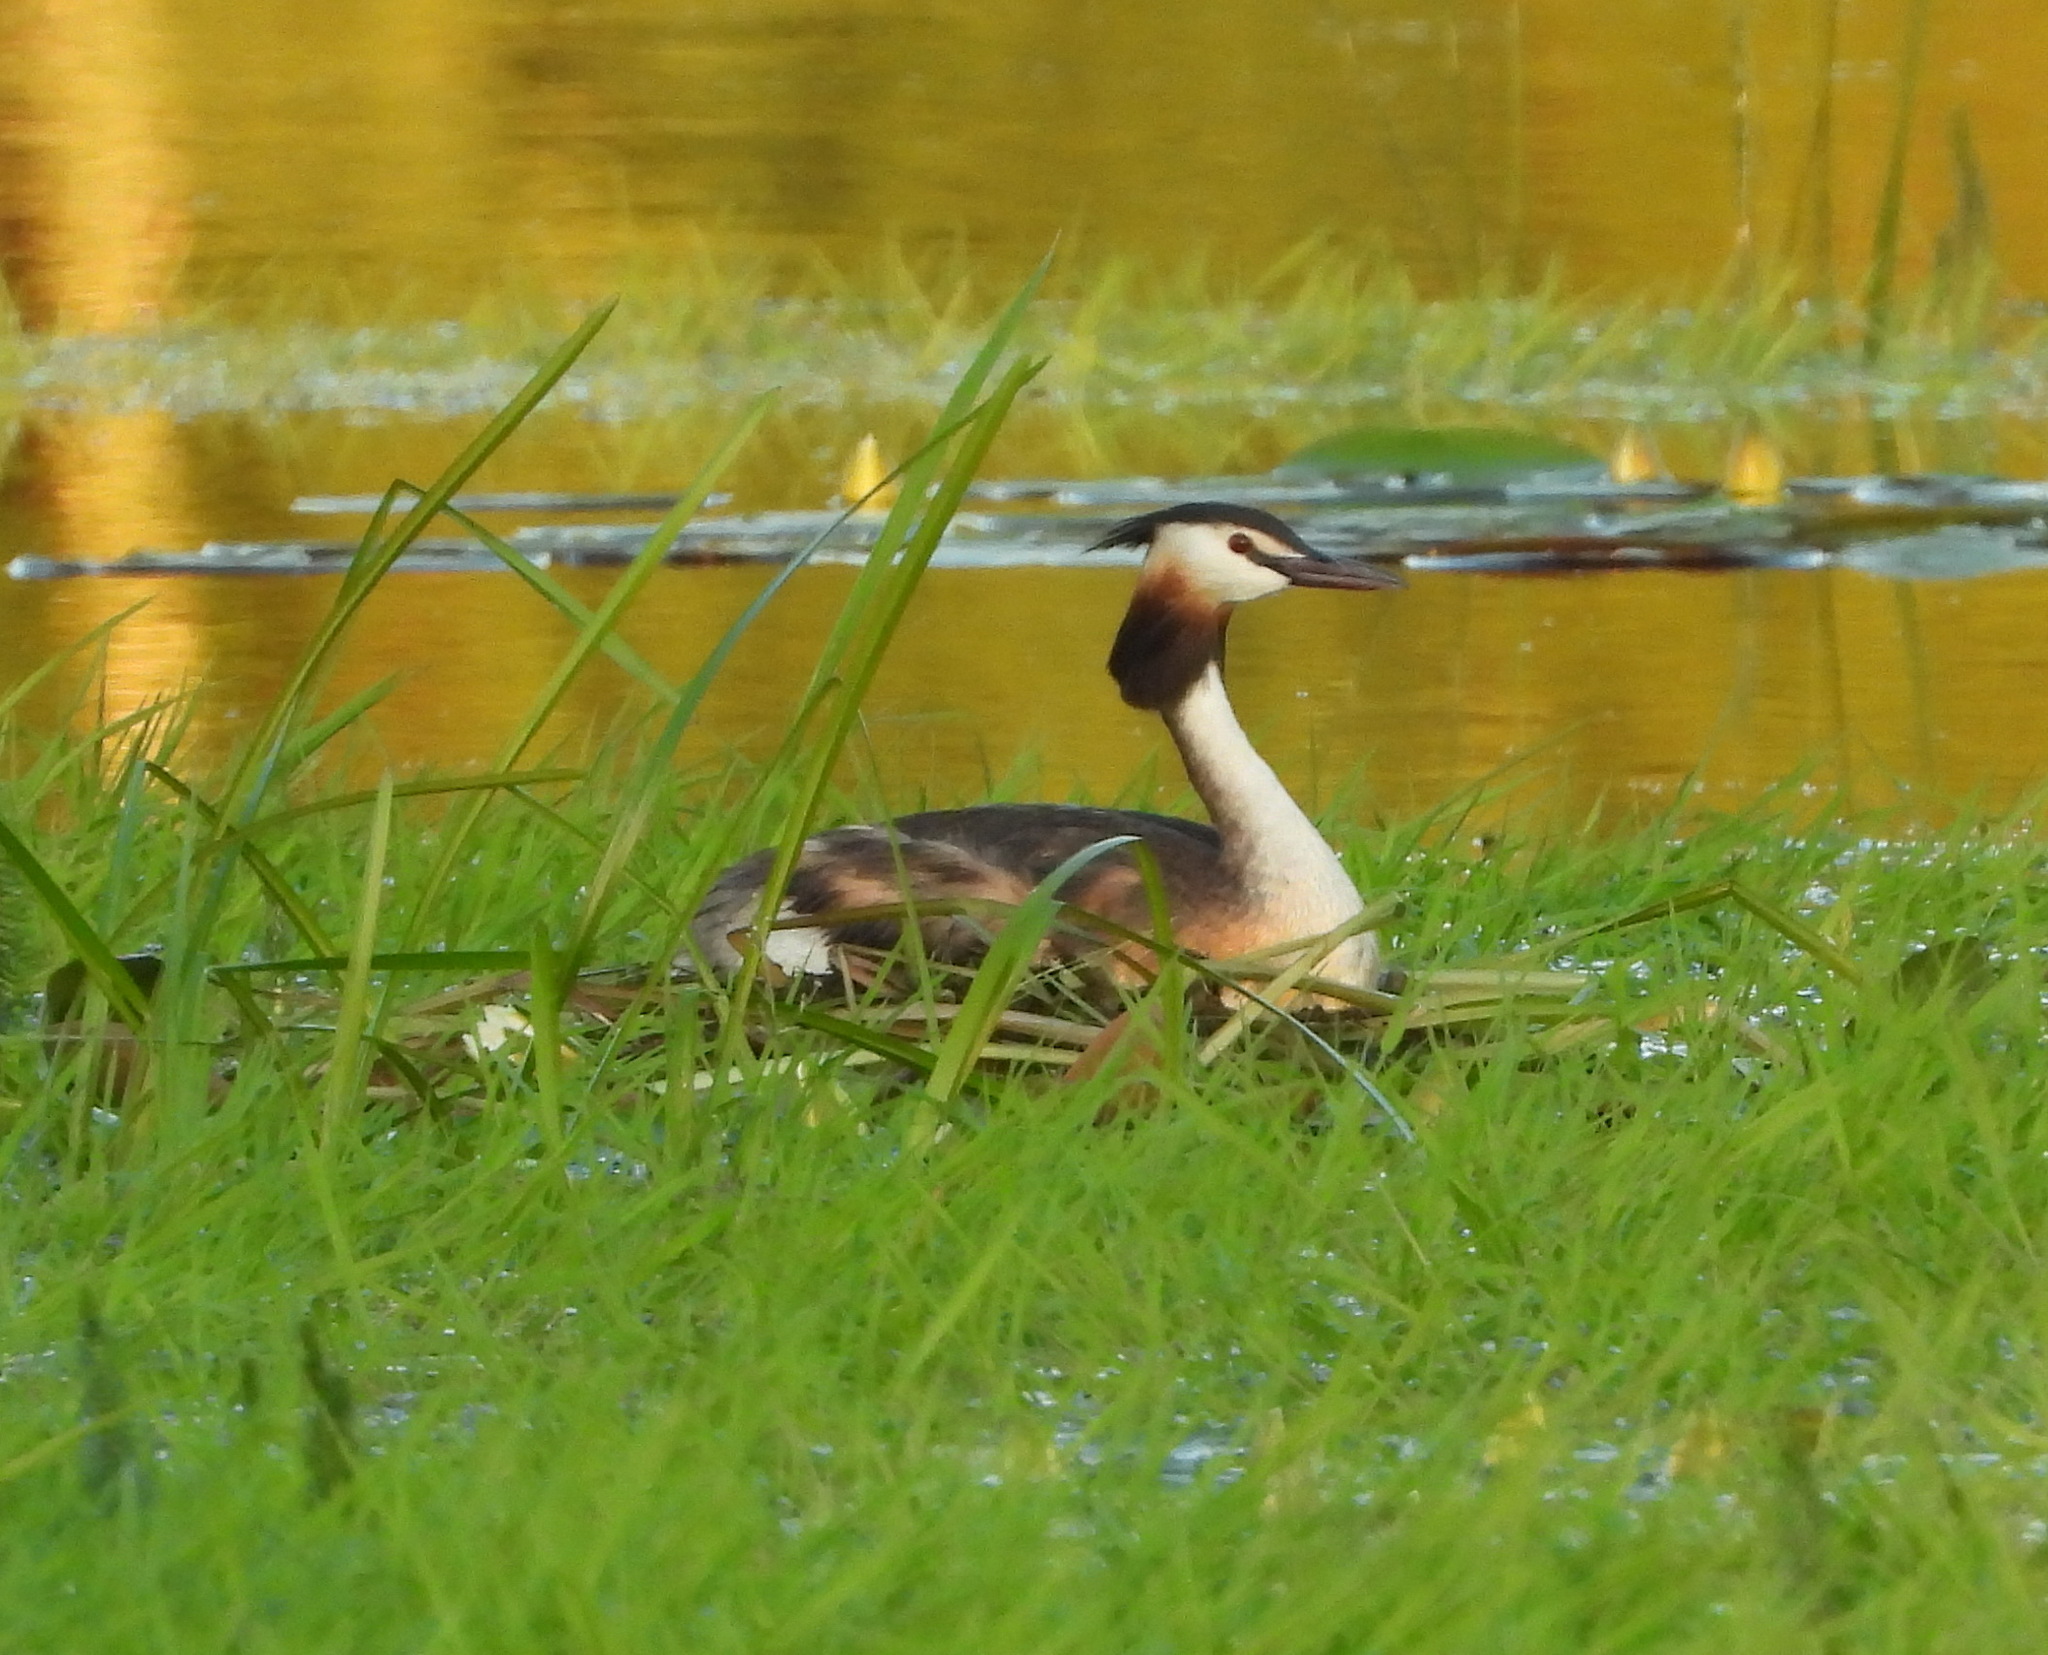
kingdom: Animalia
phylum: Chordata
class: Aves
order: Podicipediformes
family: Podicipedidae
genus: Podiceps
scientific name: Podiceps cristatus
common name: Great crested grebe
